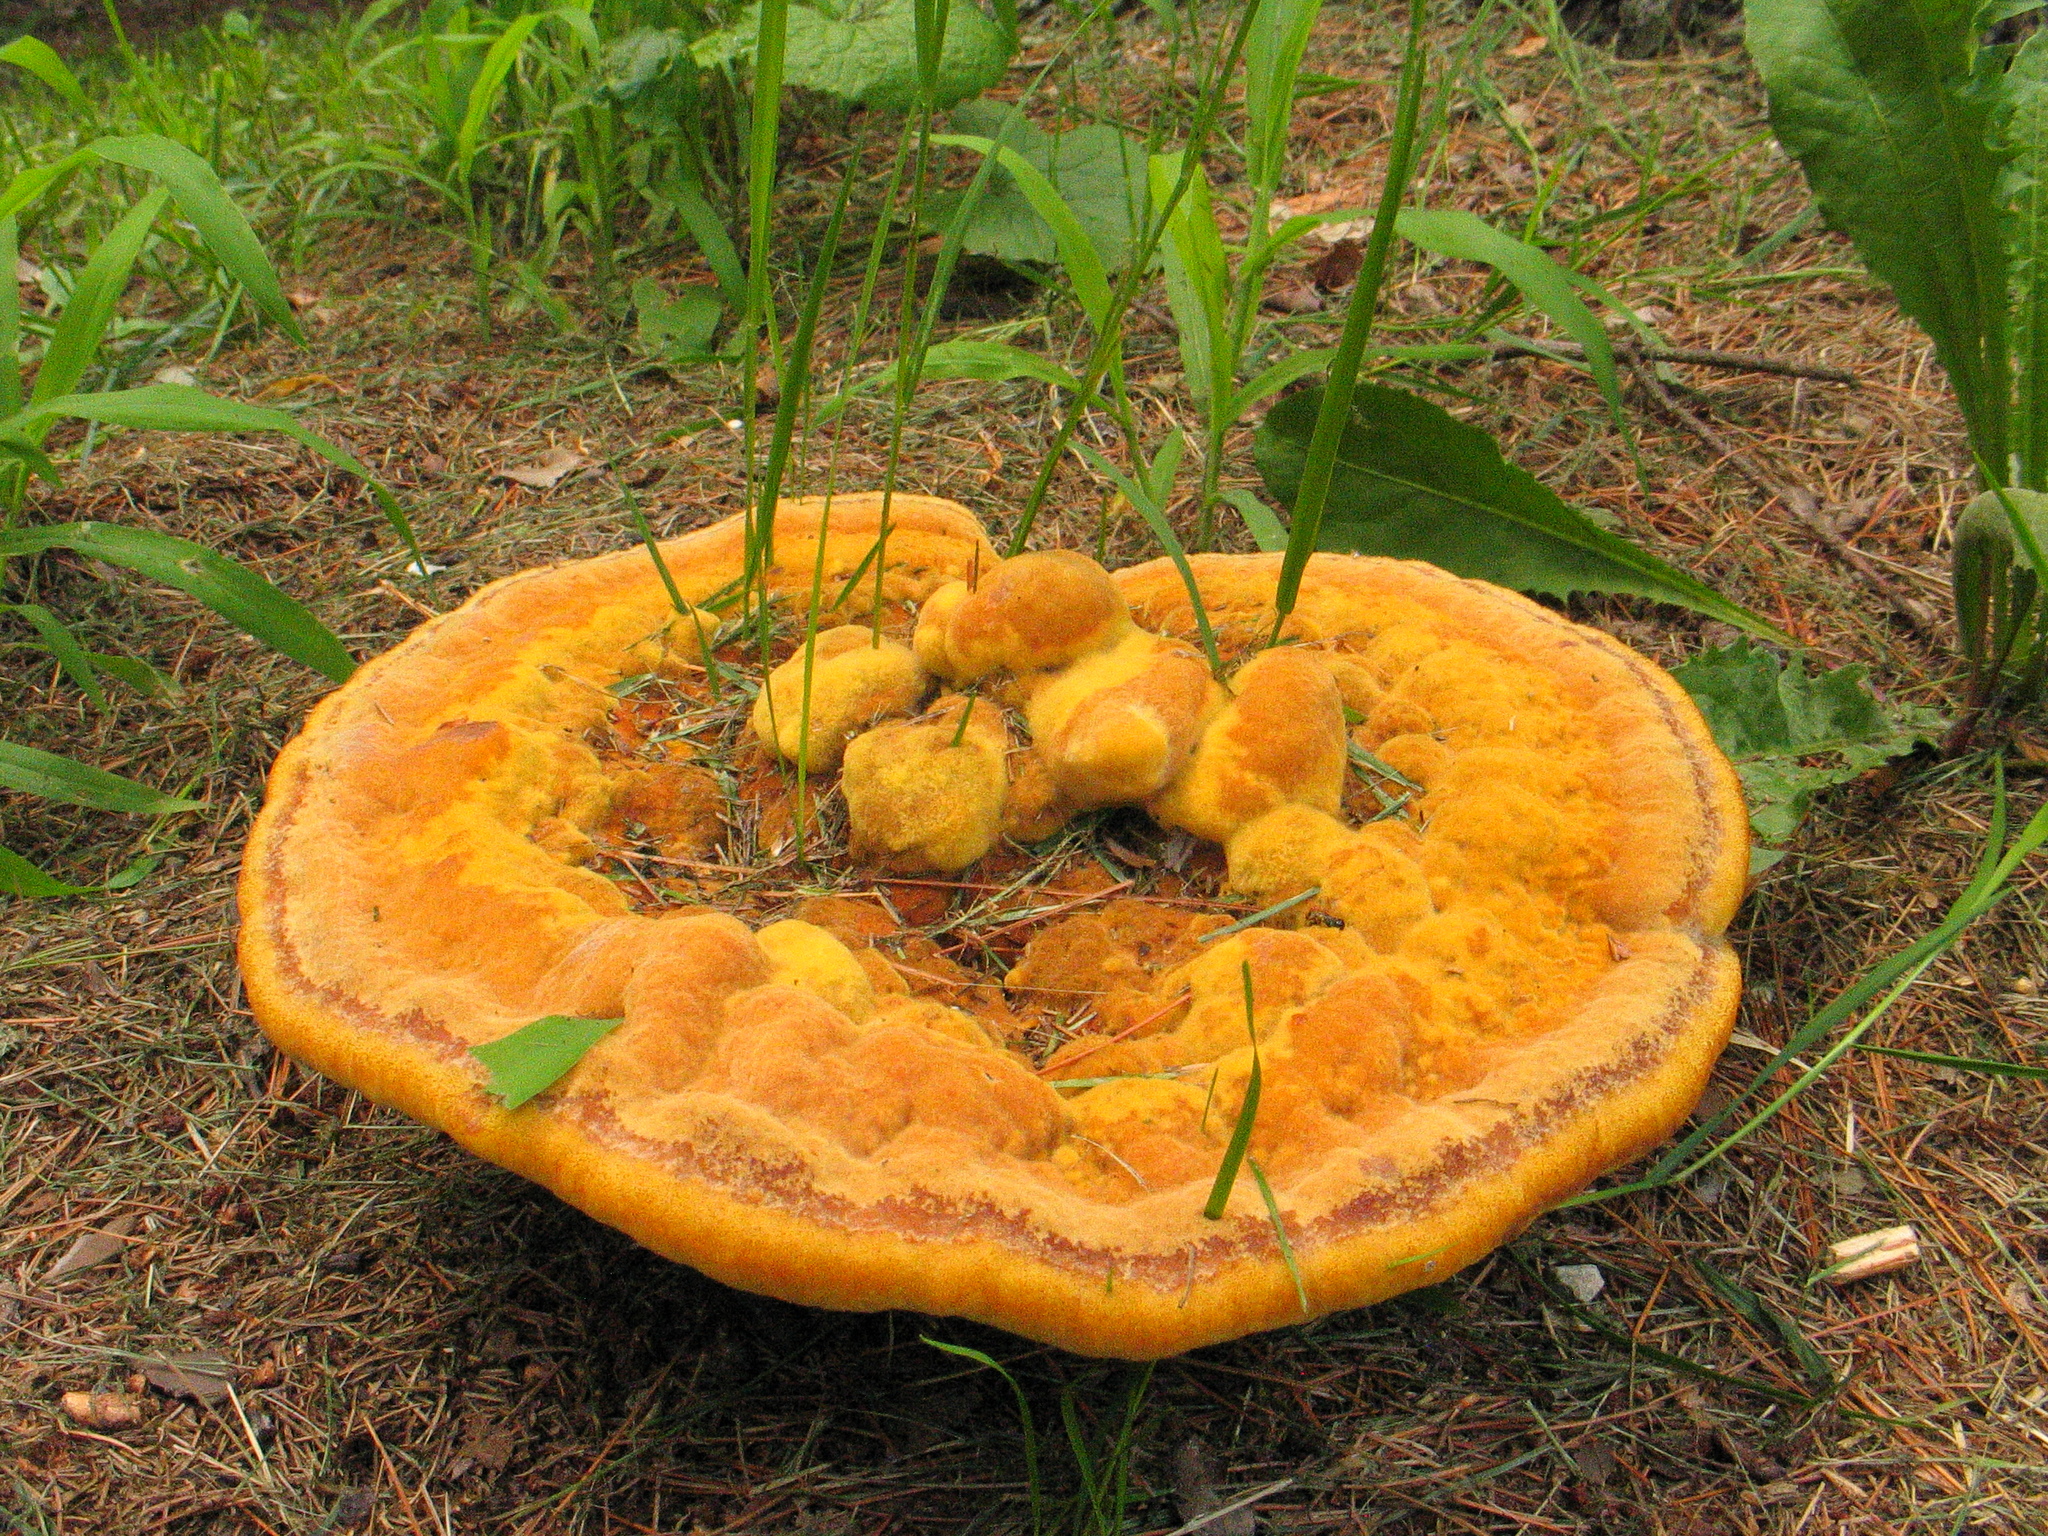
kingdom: Fungi
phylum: Basidiomycota
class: Agaricomycetes
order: Polyporales
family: Laetiporaceae
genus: Phaeolus
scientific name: Phaeolus schweinitzii
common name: Dyer's mazegill
